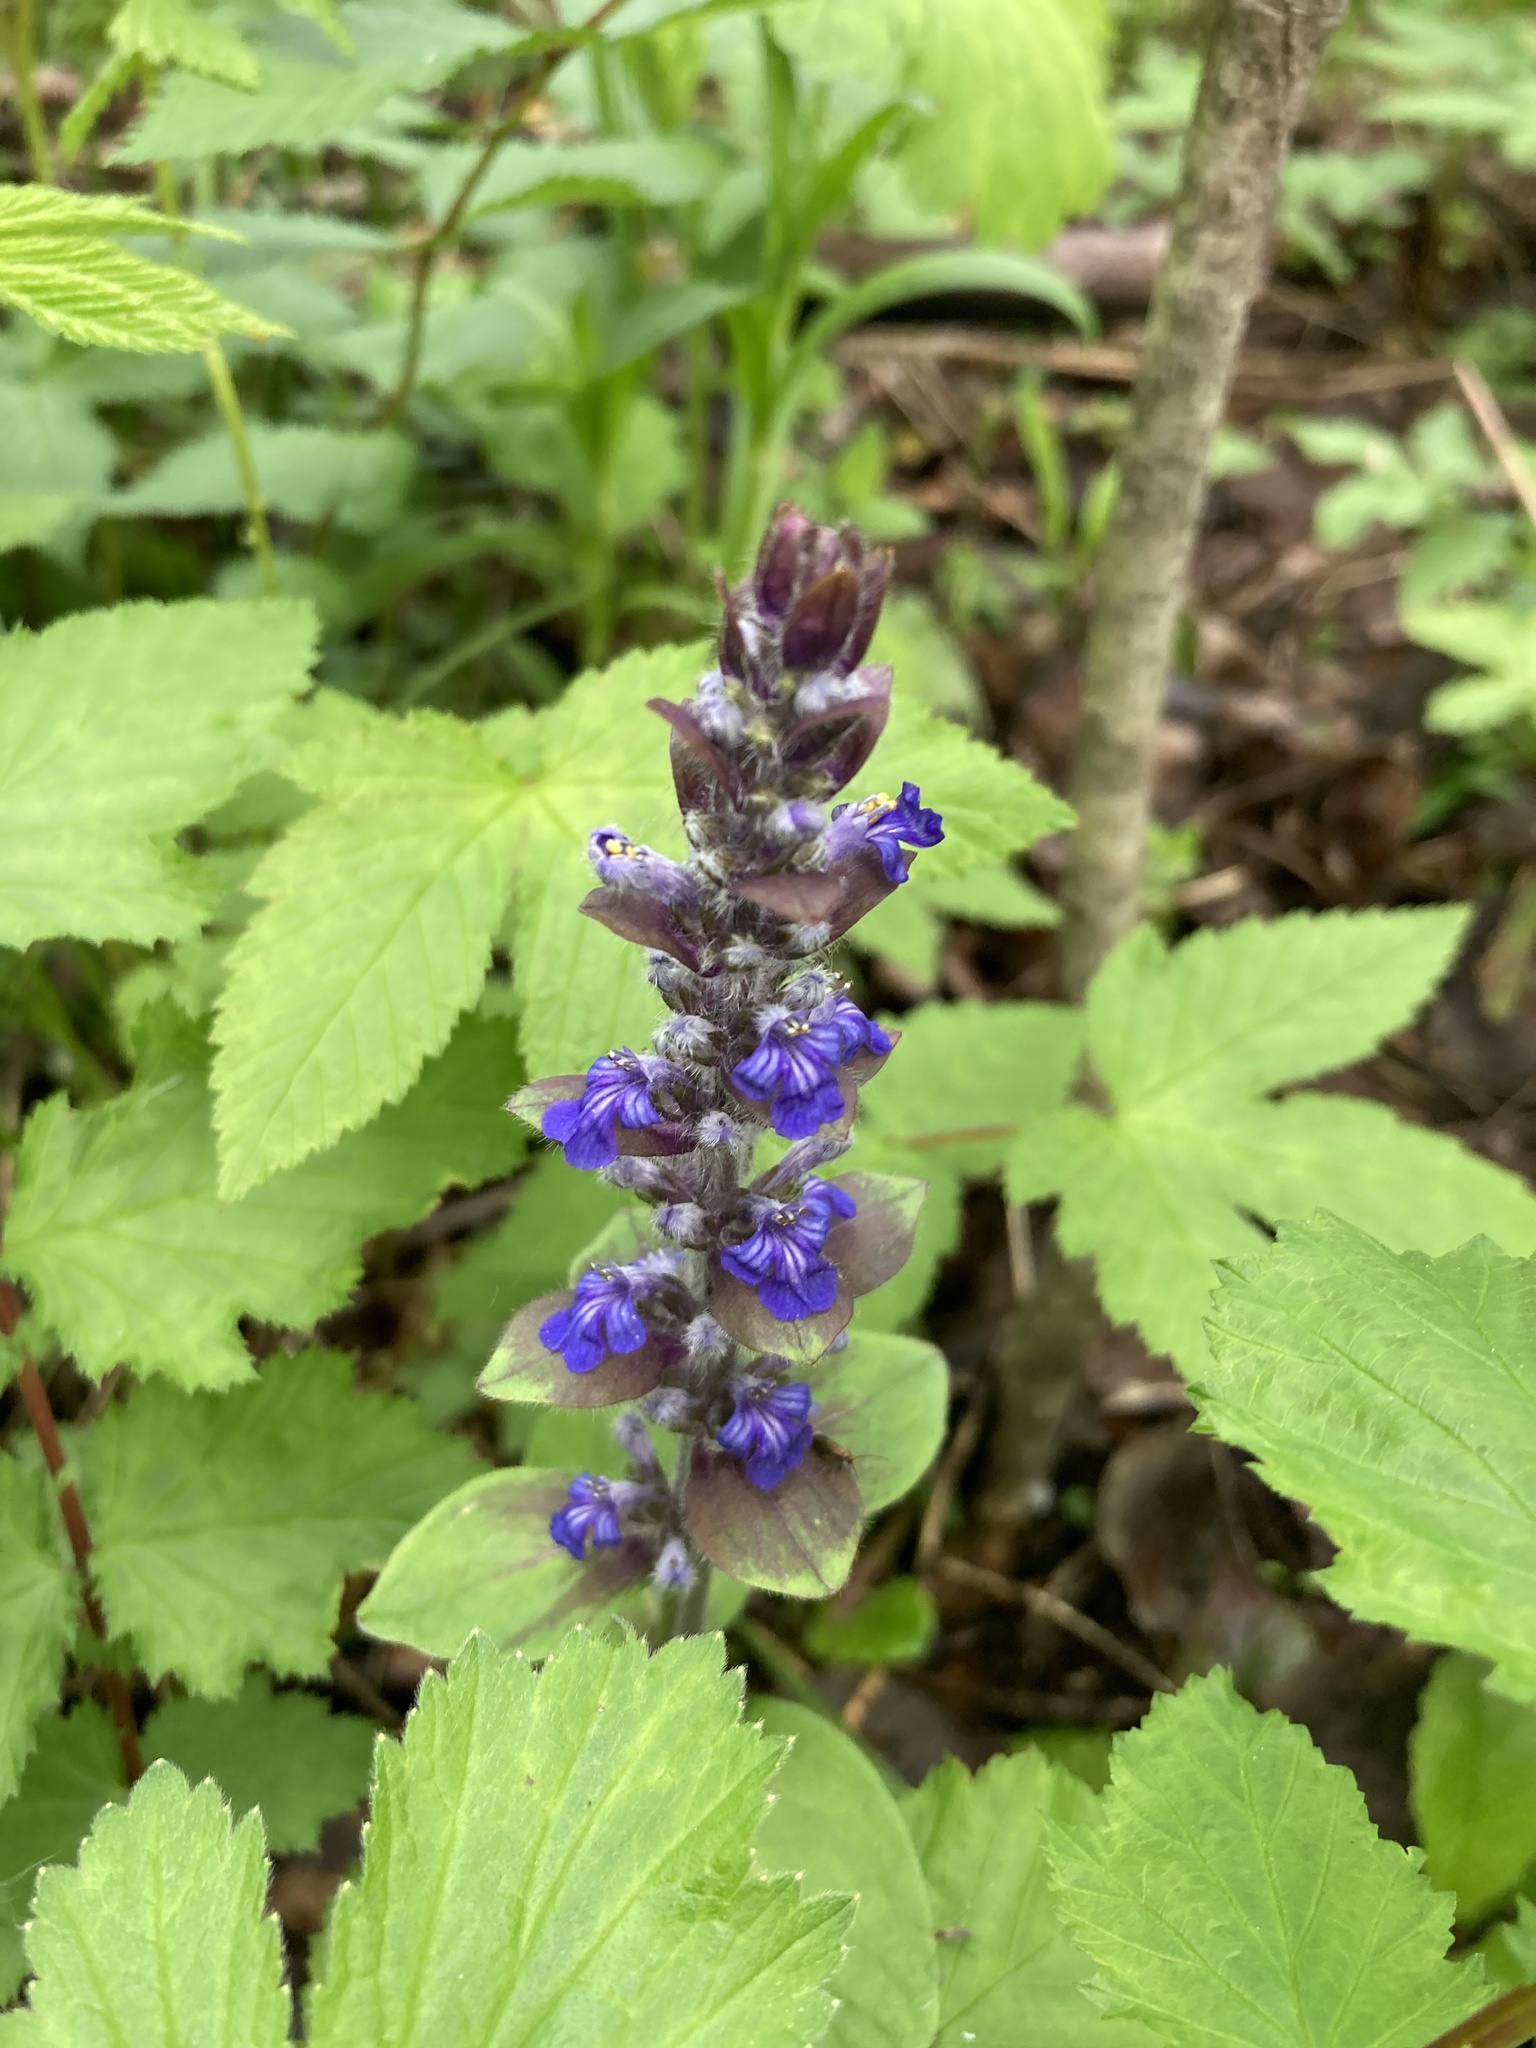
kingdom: Plantae
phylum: Tracheophyta
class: Magnoliopsida
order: Lamiales
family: Lamiaceae
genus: Ajuga
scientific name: Ajuga reptans
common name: Bugle
